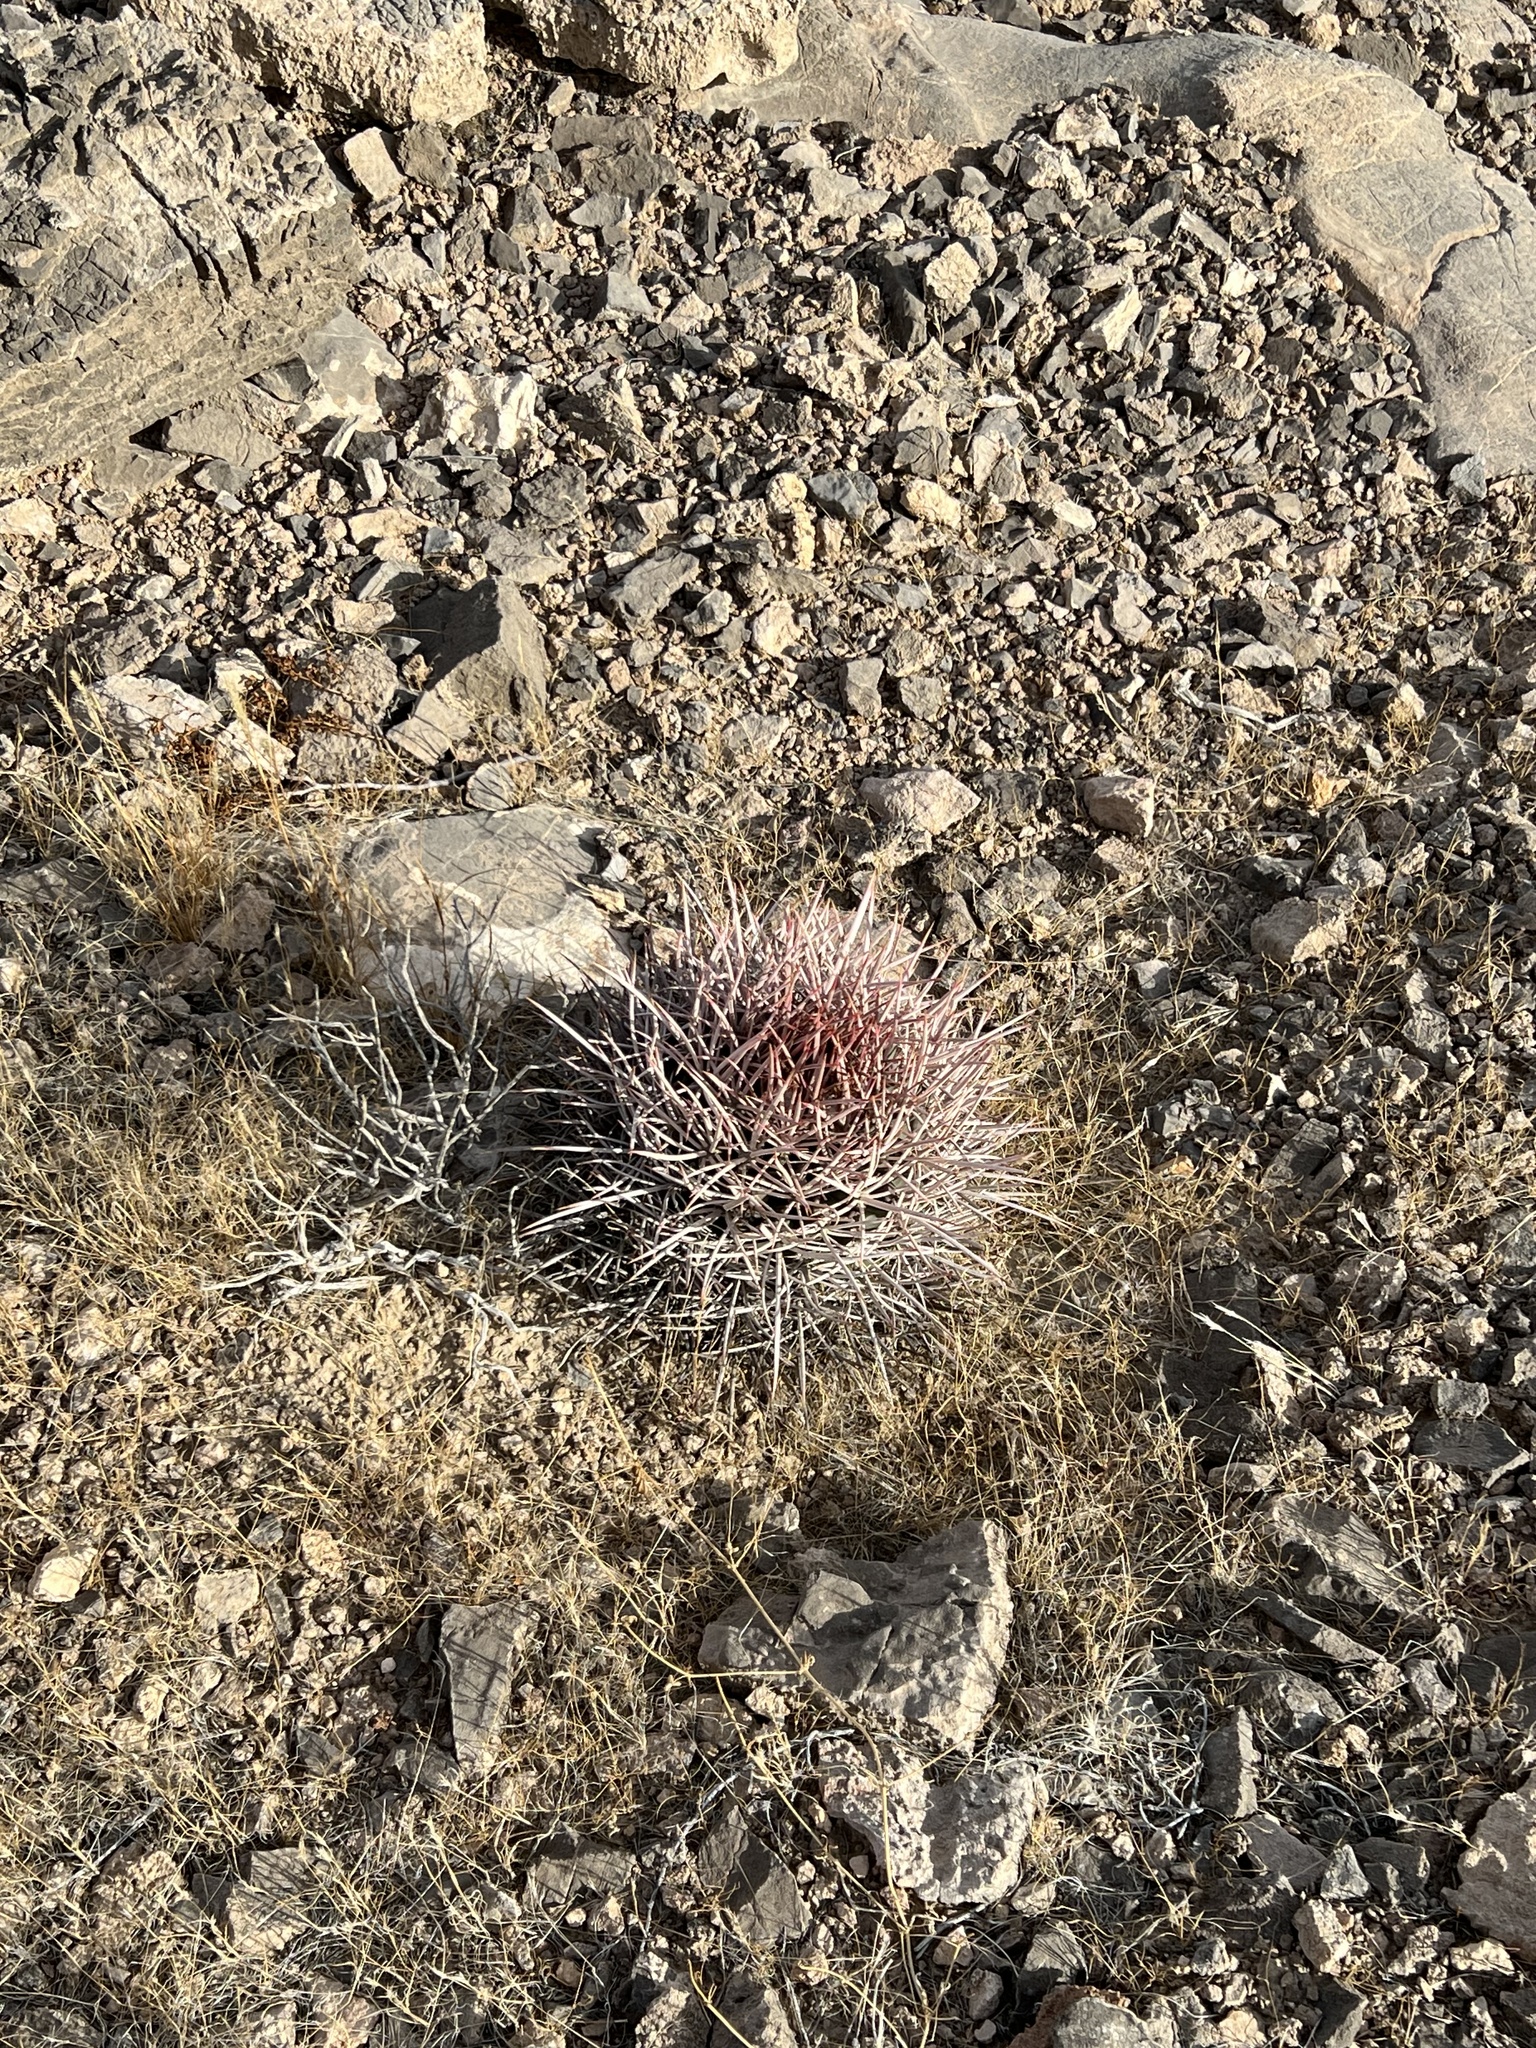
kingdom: Plantae
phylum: Tracheophyta
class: Magnoliopsida
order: Caryophyllales
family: Cactaceae
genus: Echinocactus
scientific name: Echinocactus polycephalus
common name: Cottontop cactus
